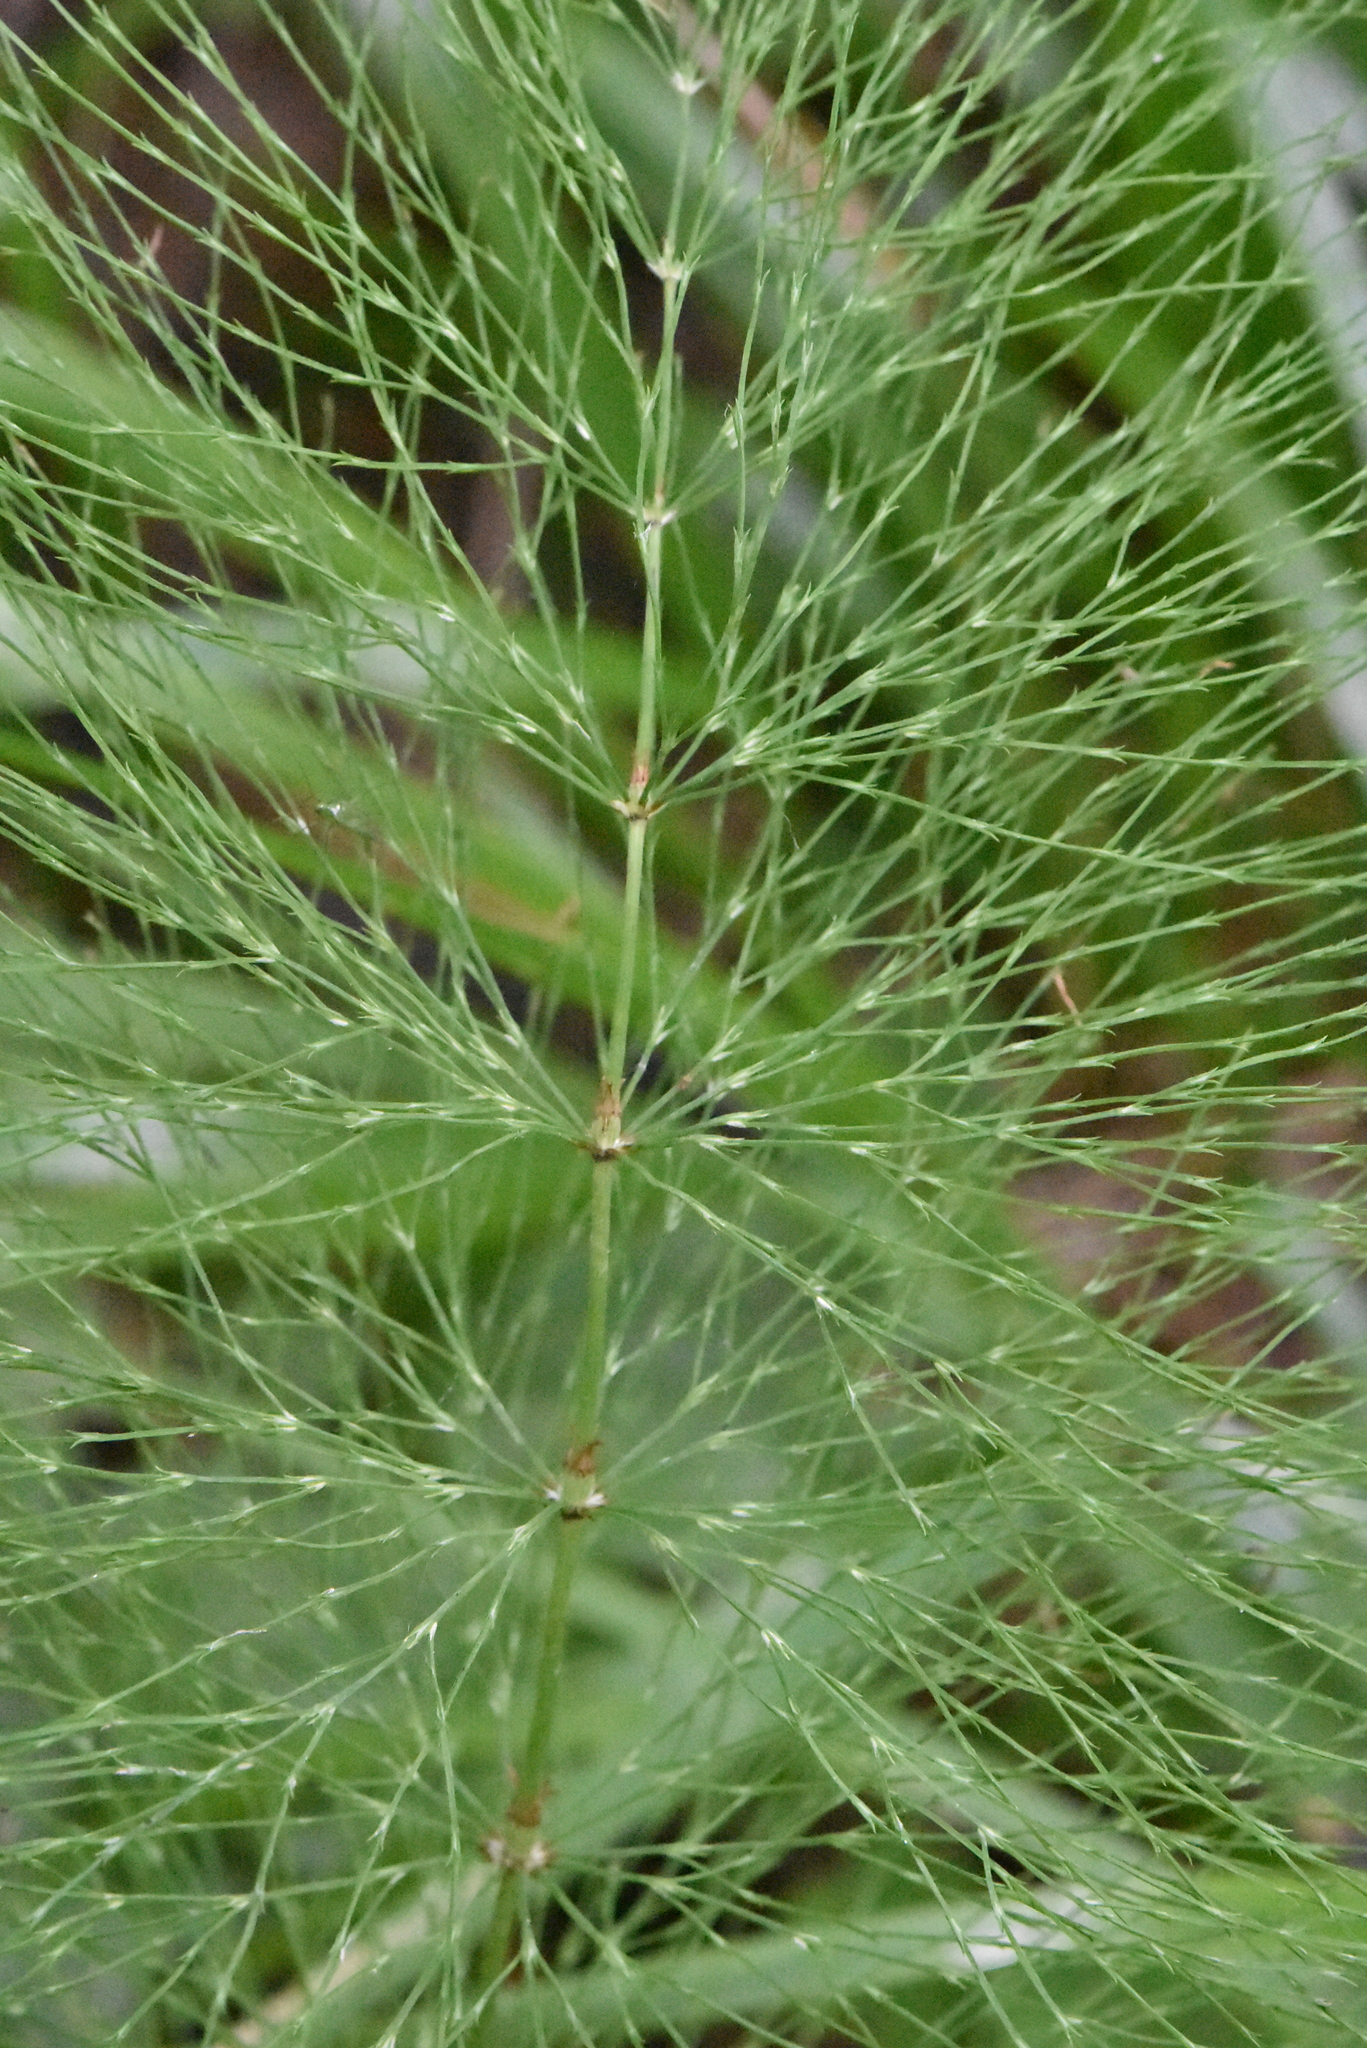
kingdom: Plantae
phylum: Tracheophyta
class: Polypodiopsida
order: Equisetales
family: Equisetaceae
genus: Equisetum
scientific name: Equisetum sylvaticum
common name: Wood horsetail
